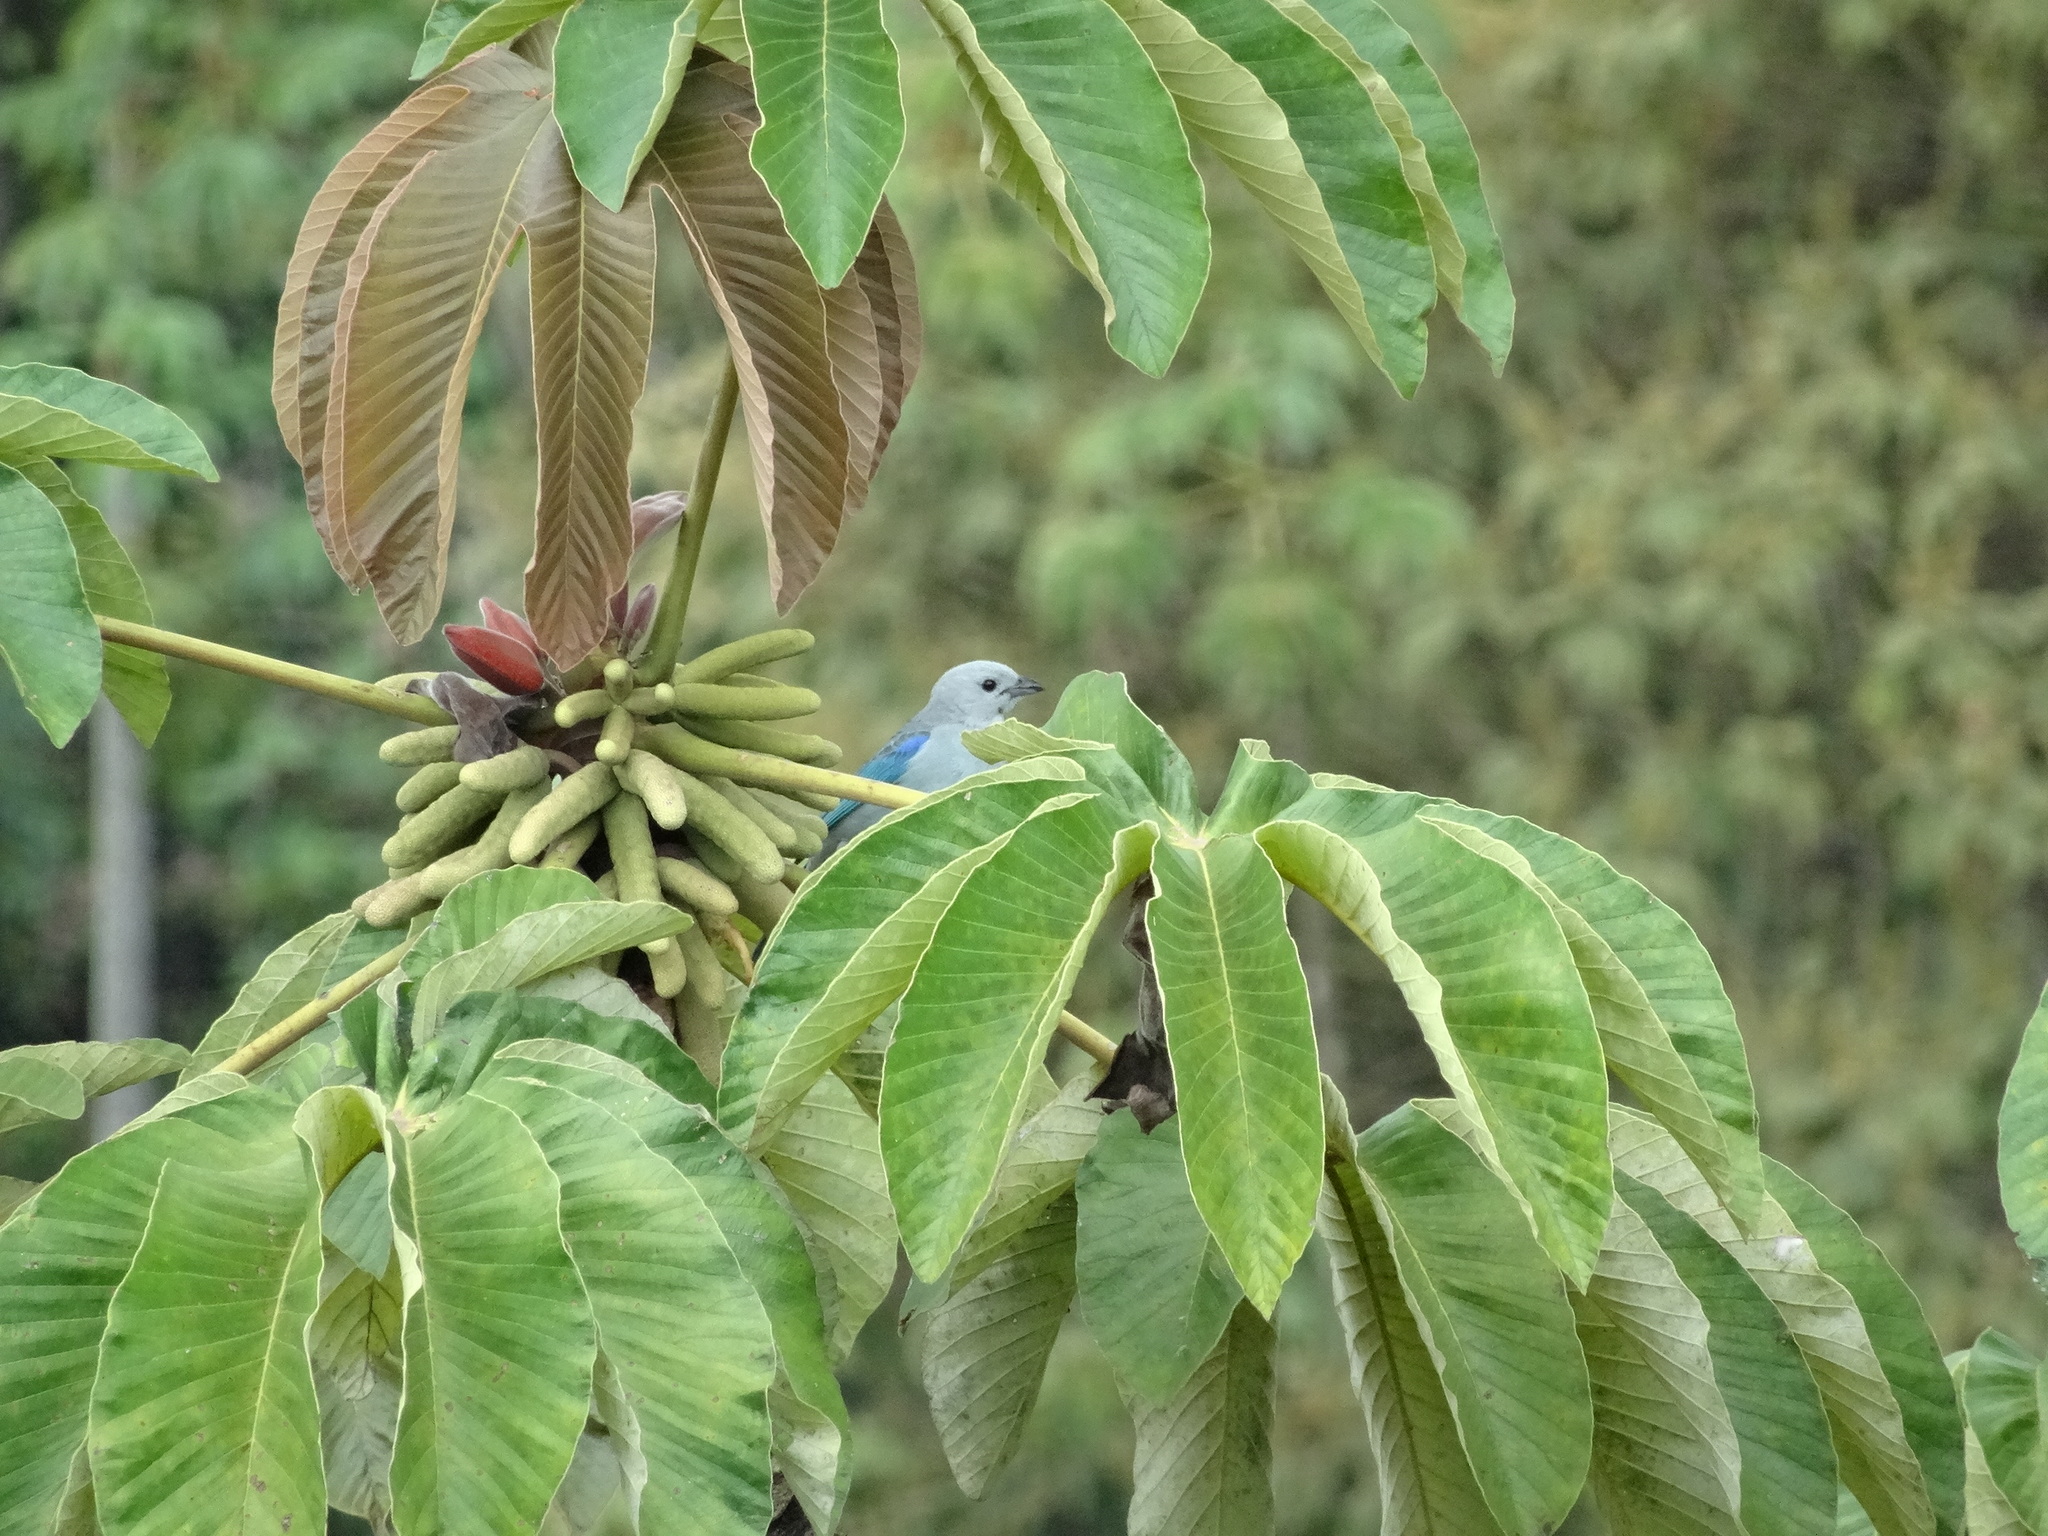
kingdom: Animalia
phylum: Chordata
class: Aves
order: Passeriformes
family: Thraupidae
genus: Thraupis
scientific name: Thraupis episcopus
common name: Blue-grey tanager
